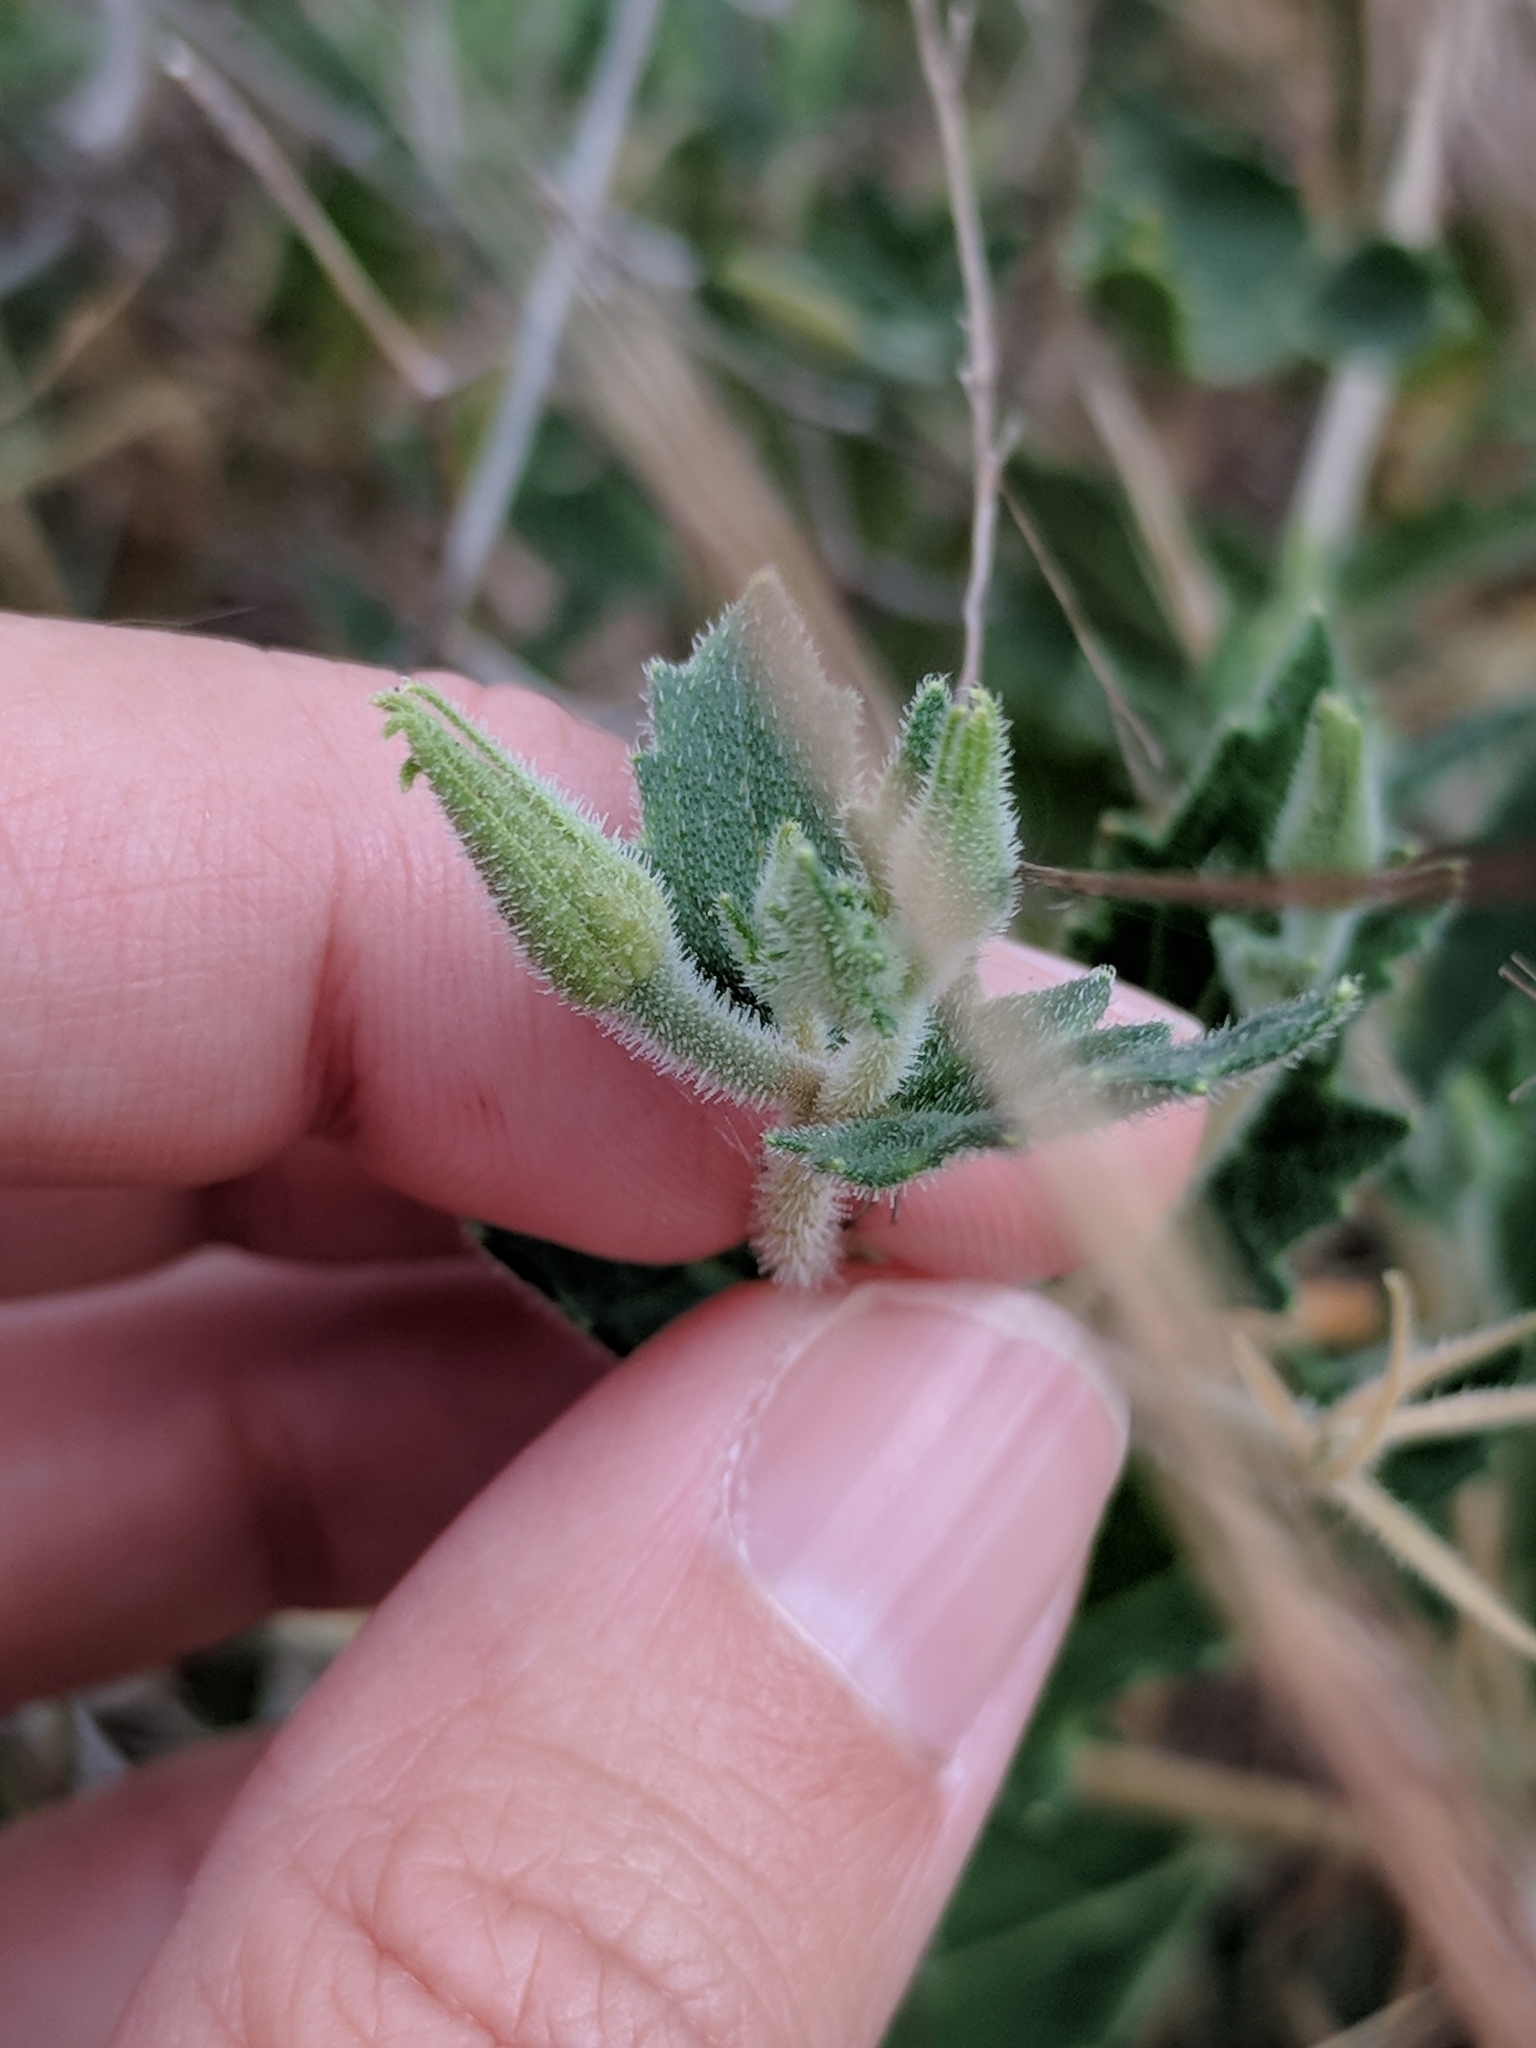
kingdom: Plantae
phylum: Tracheophyta
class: Magnoliopsida
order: Cornales
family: Loasaceae
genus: Mentzelia
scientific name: Mentzelia oligosperma
